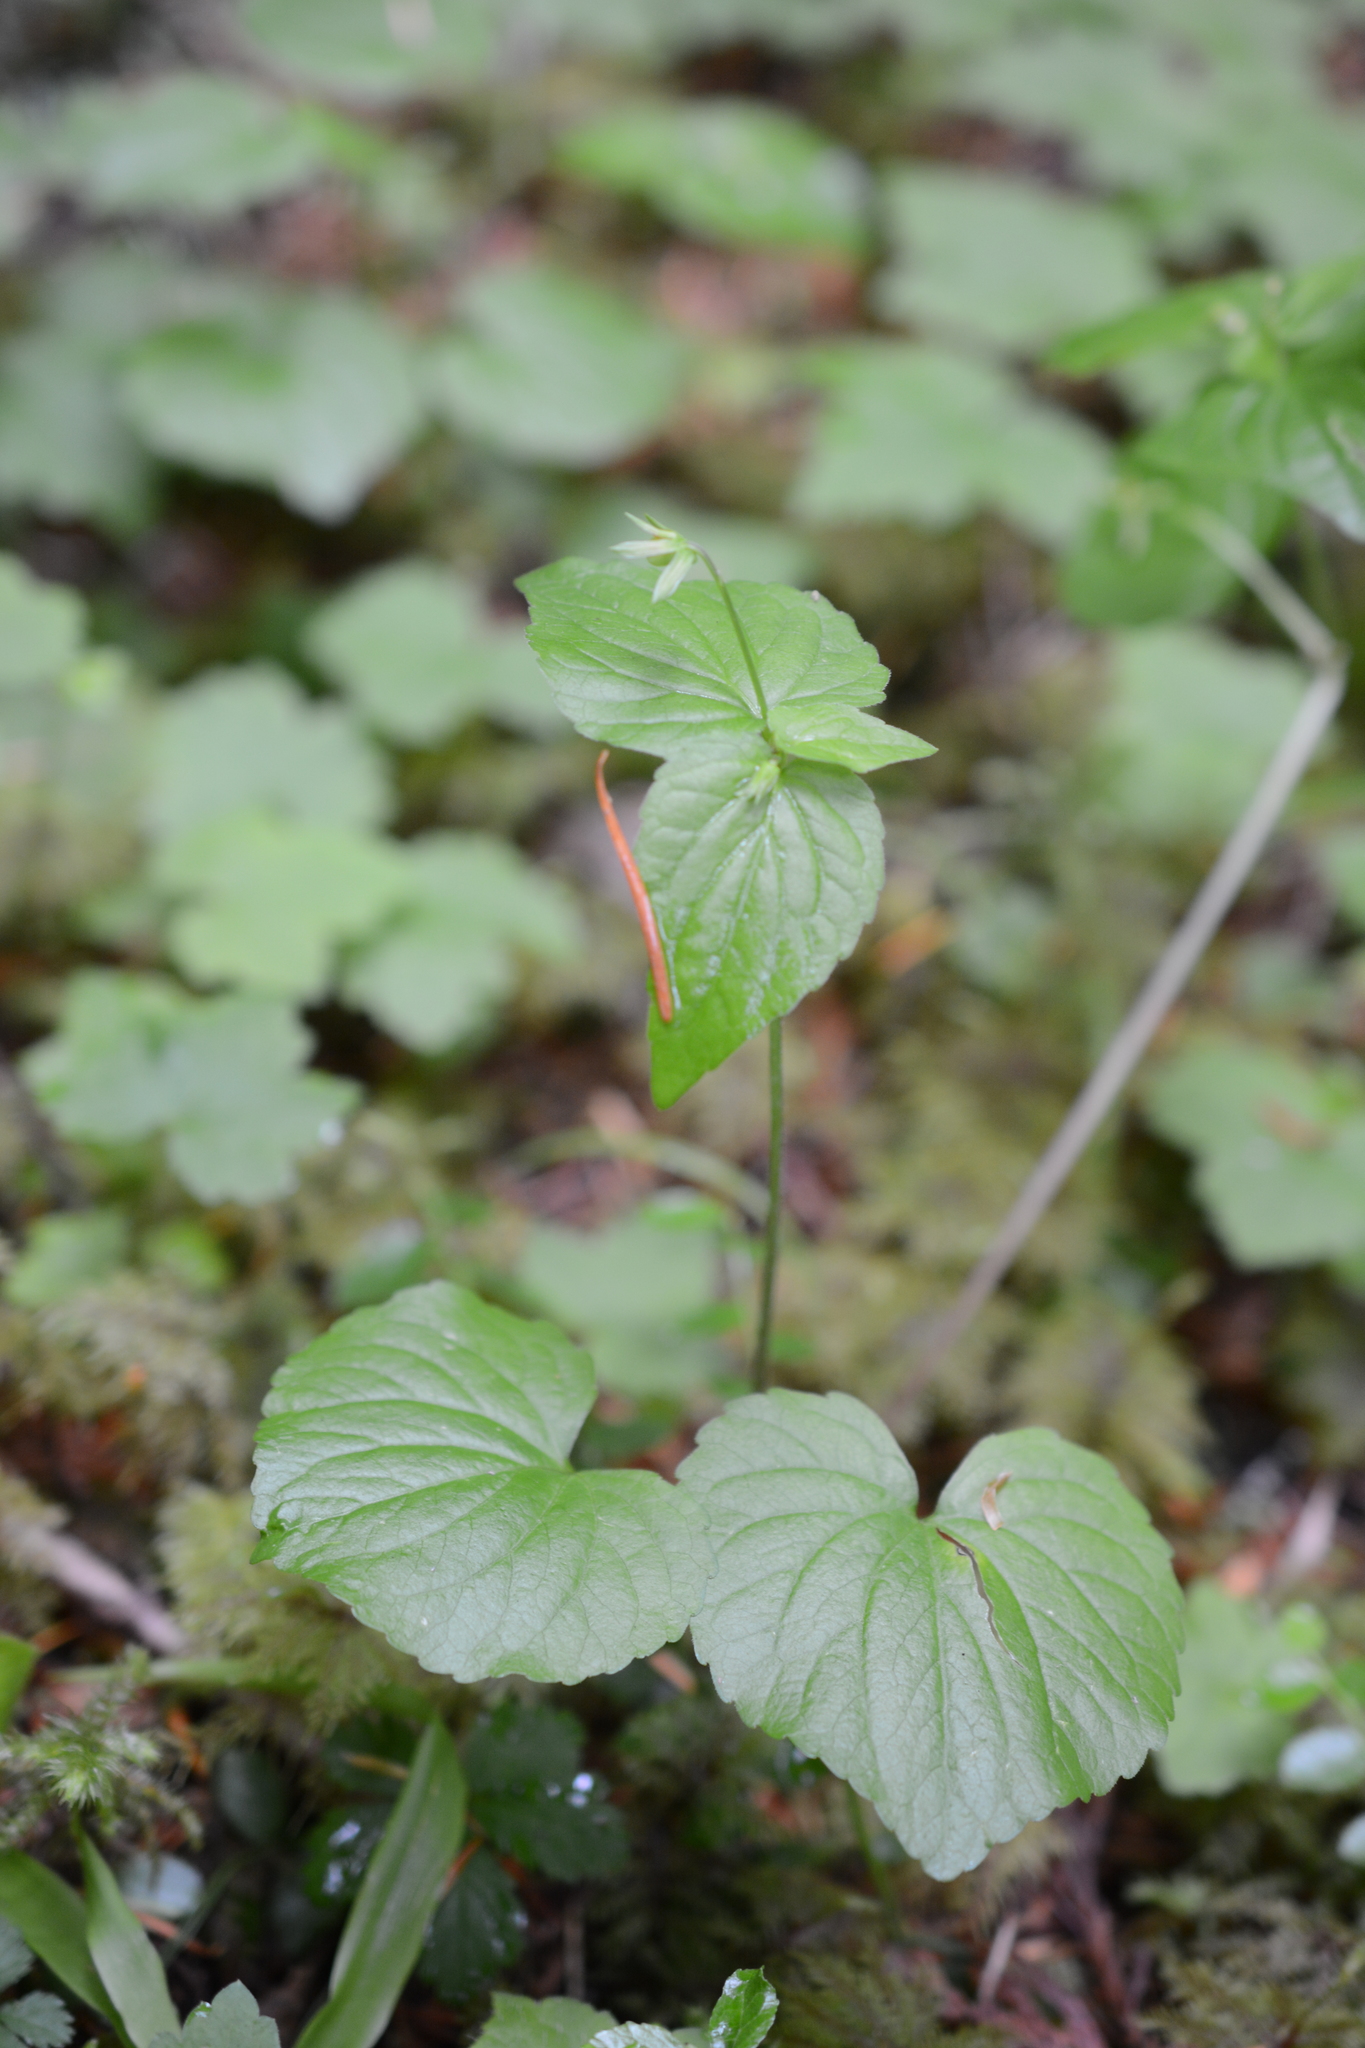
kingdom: Plantae
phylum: Tracheophyta
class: Magnoliopsida
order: Malpighiales
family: Violaceae
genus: Viola
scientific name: Viola glabella
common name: Stream violet
